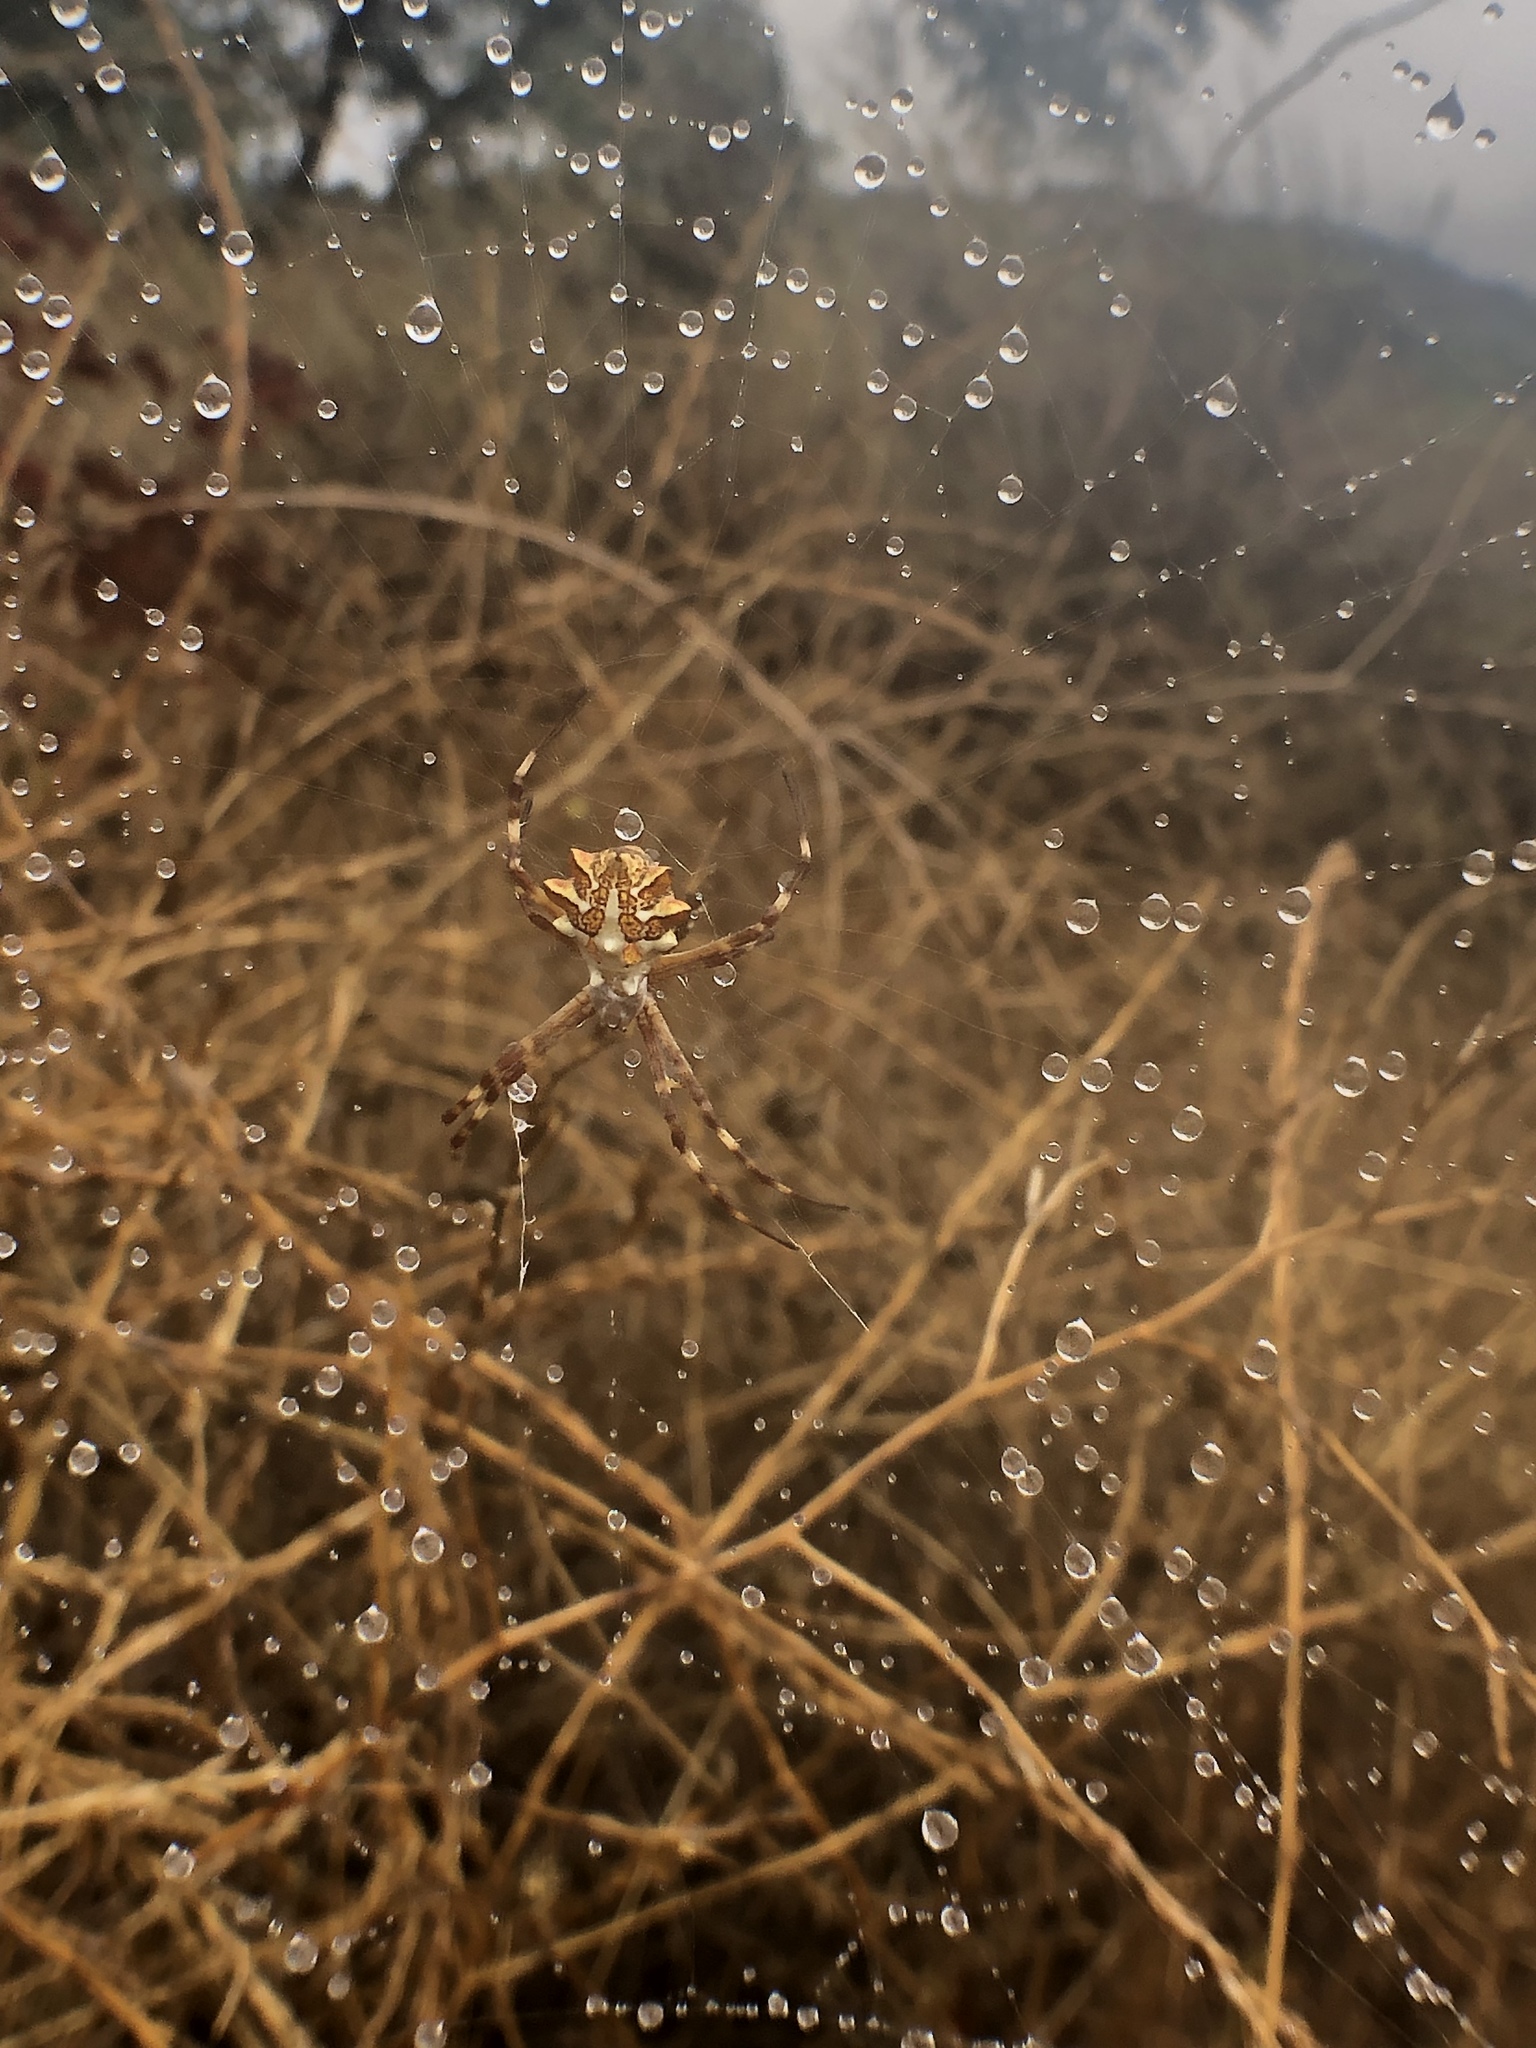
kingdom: Animalia
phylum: Arthropoda
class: Arachnida
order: Araneae
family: Araneidae
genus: Argiope
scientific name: Argiope argentata
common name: Orb weavers
